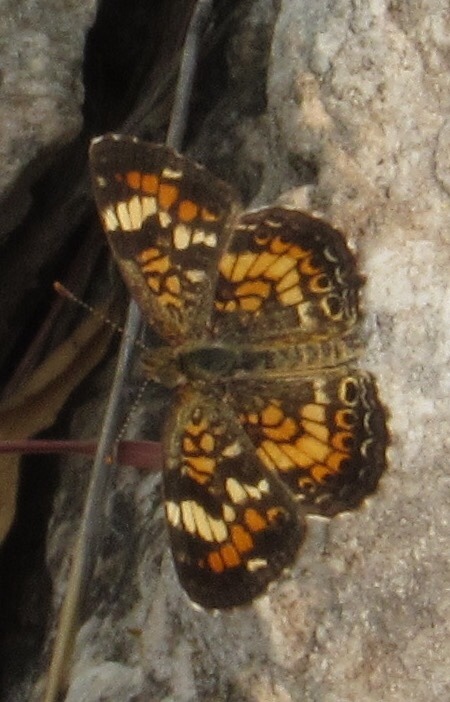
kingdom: Animalia
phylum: Arthropoda
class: Insecta
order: Lepidoptera
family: Nymphalidae
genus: Phyciodes
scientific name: Phyciodes phaon
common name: Phaon crescent
